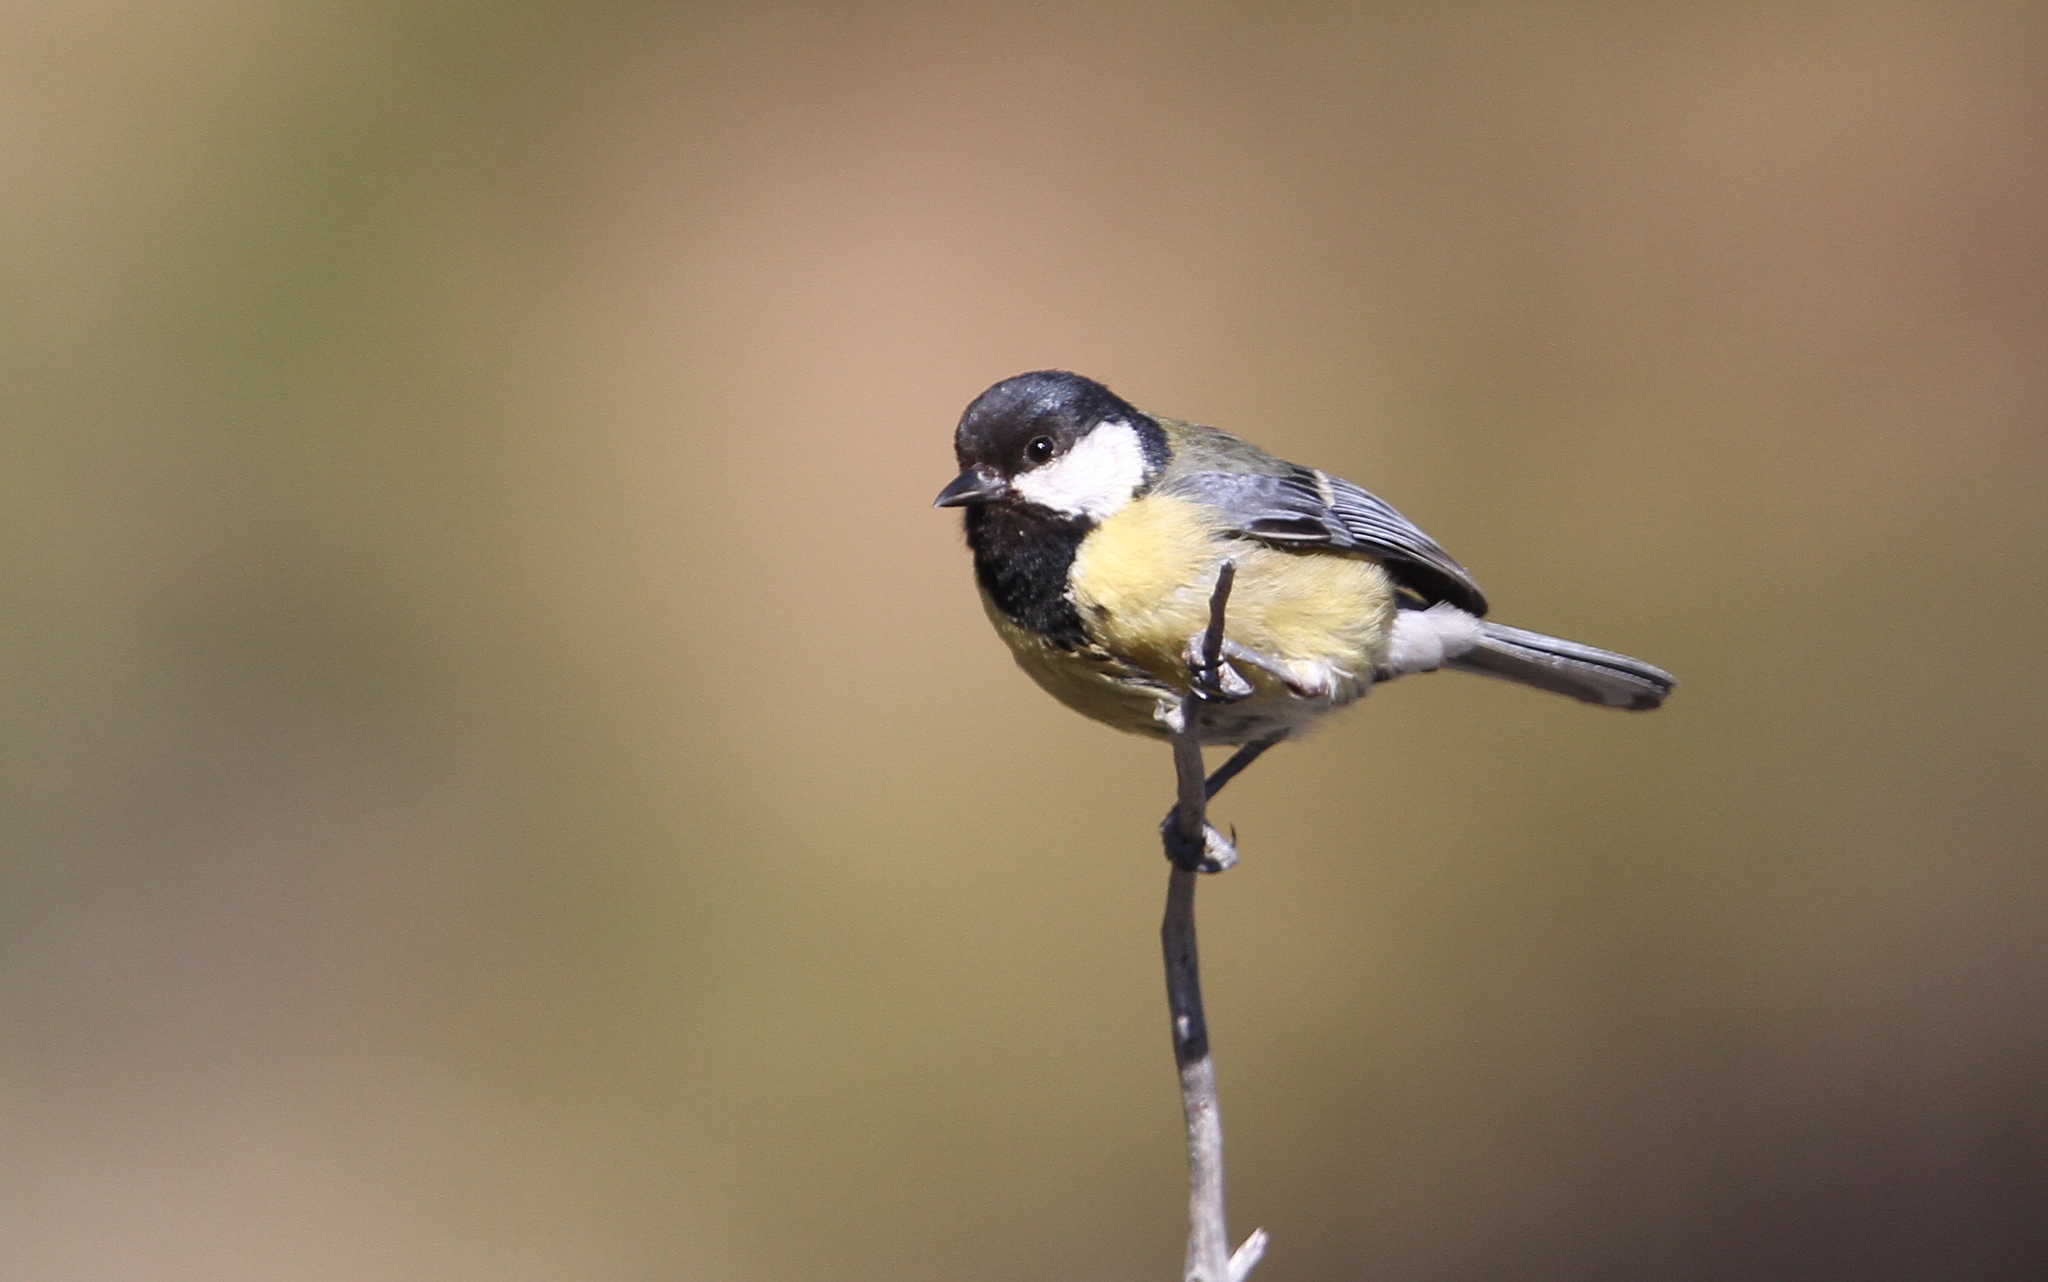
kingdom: Animalia
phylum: Chordata
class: Aves
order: Passeriformes
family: Paridae
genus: Parus
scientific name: Parus major
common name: Great tit
